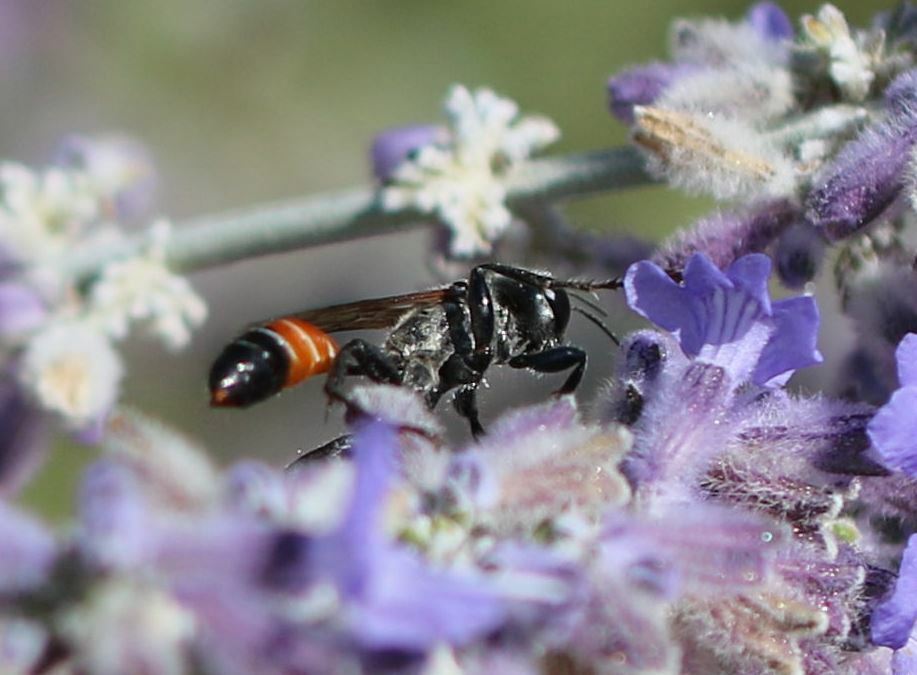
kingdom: Animalia
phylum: Arthropoda
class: Insecta
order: Hymenoptera
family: Sphecidae
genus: Prionyx
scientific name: Prionyx kirbii
